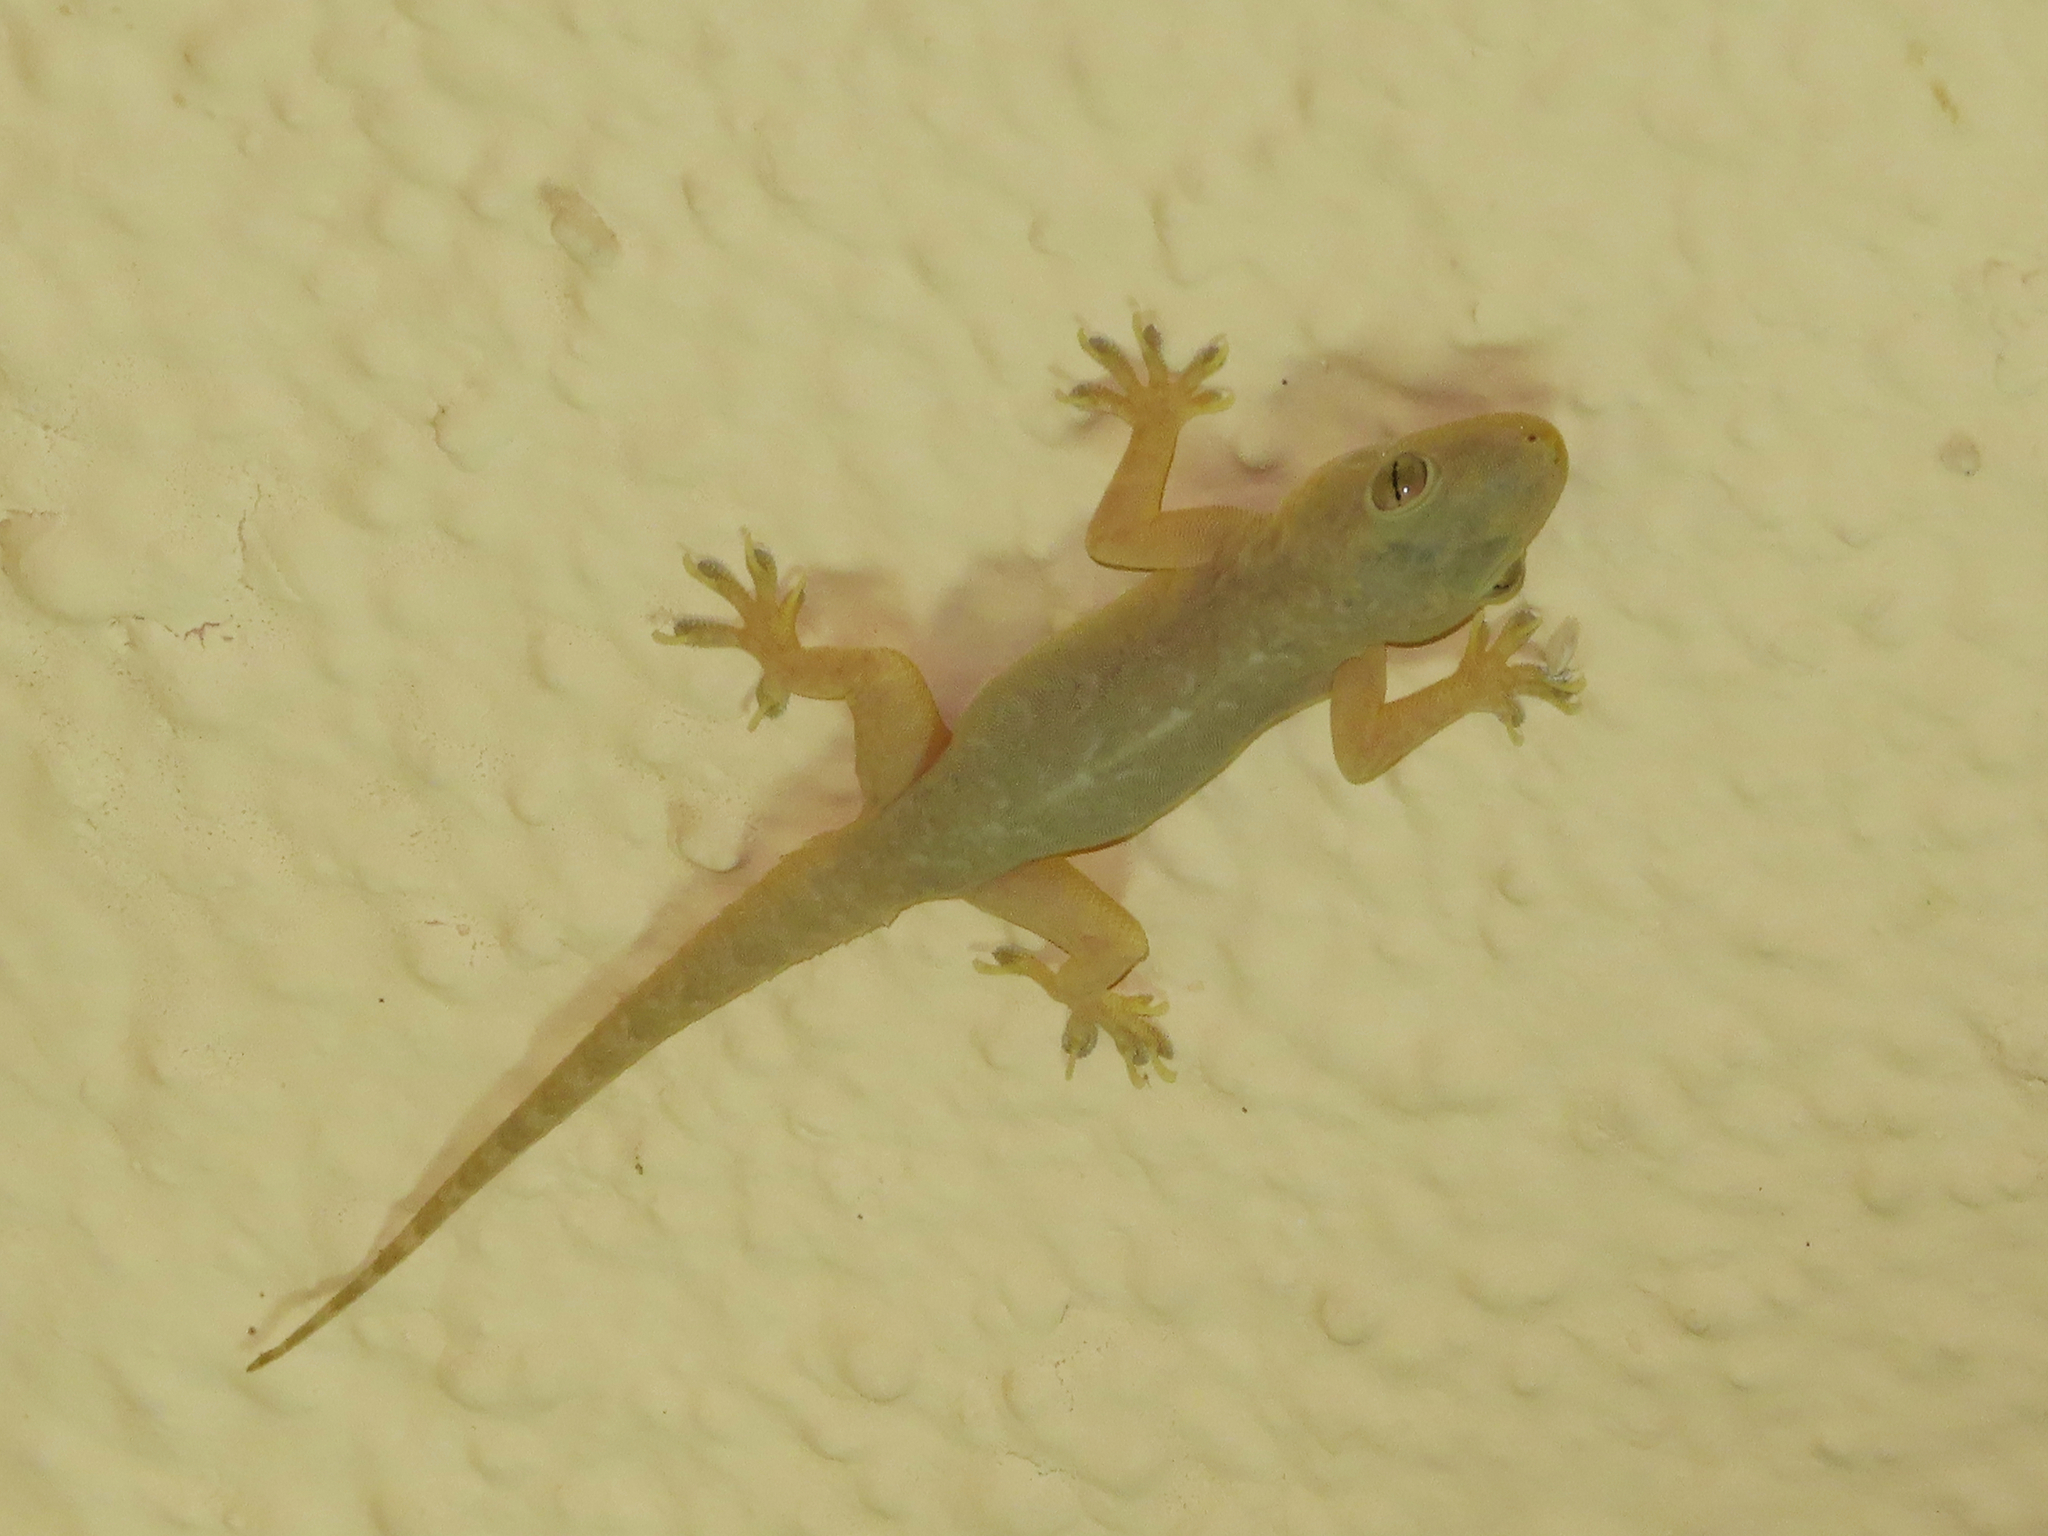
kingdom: Animalia
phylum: Chordata
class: Squamata
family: Gekkonidae
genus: Hemidactylus
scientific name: Hemidactylus flaviviridis
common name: Northern house gecko
